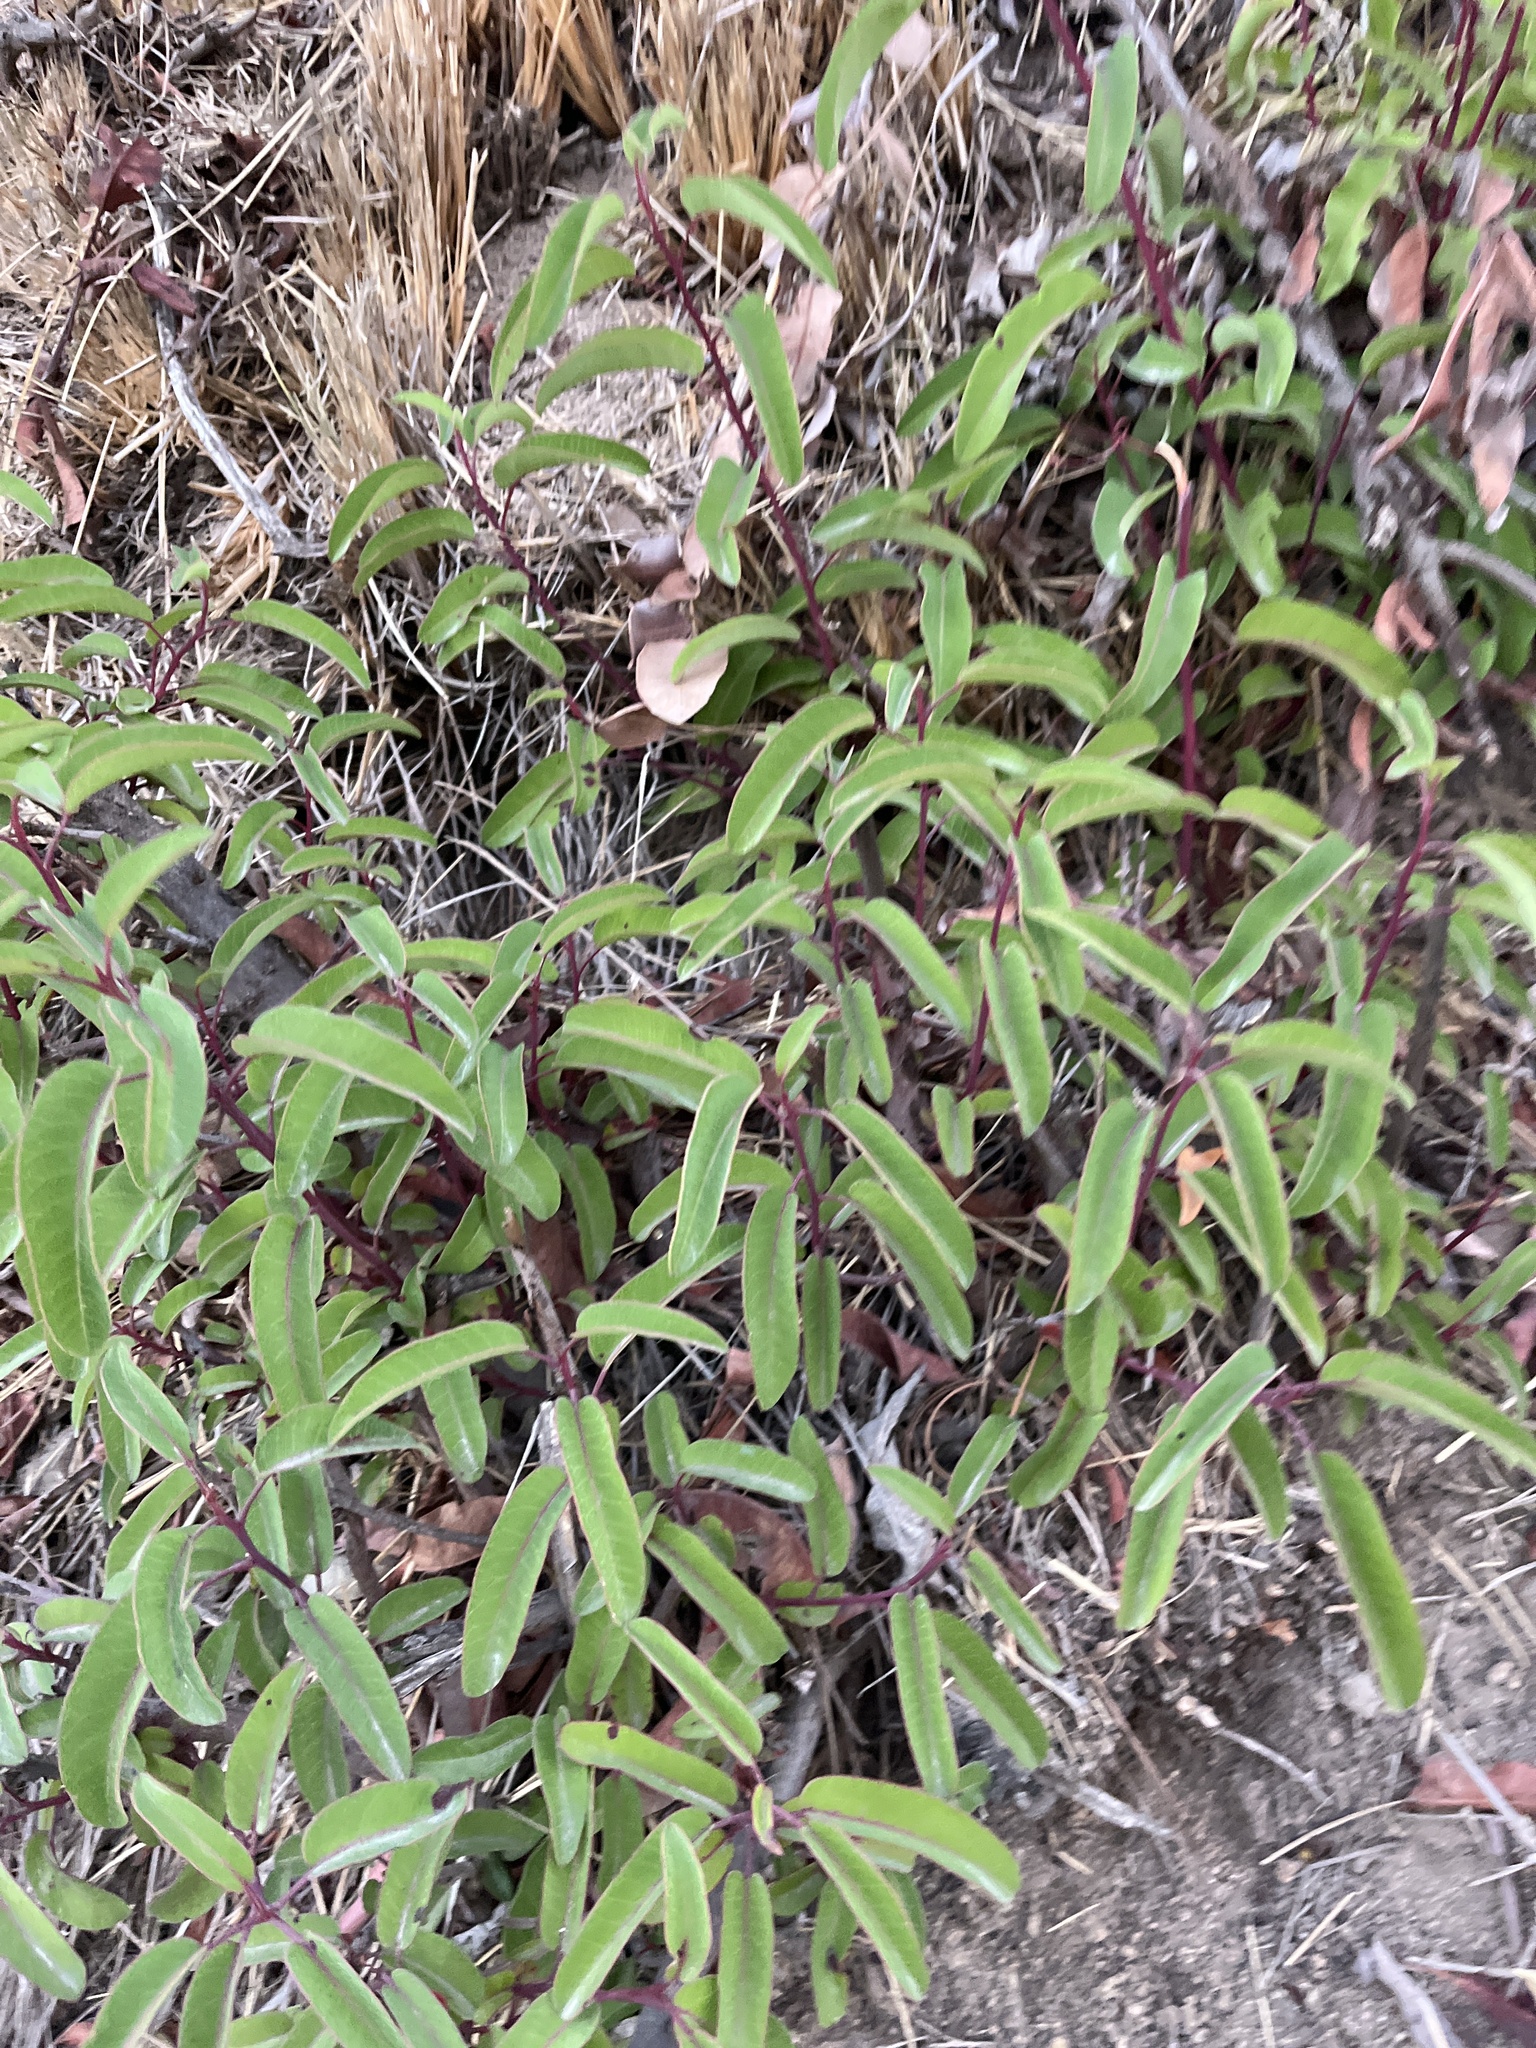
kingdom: Plantae
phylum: Tracheophyta
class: Magnoliopsida
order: Sapindales
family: Anacardiaceae
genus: Malosma
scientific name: Malosma laurina
